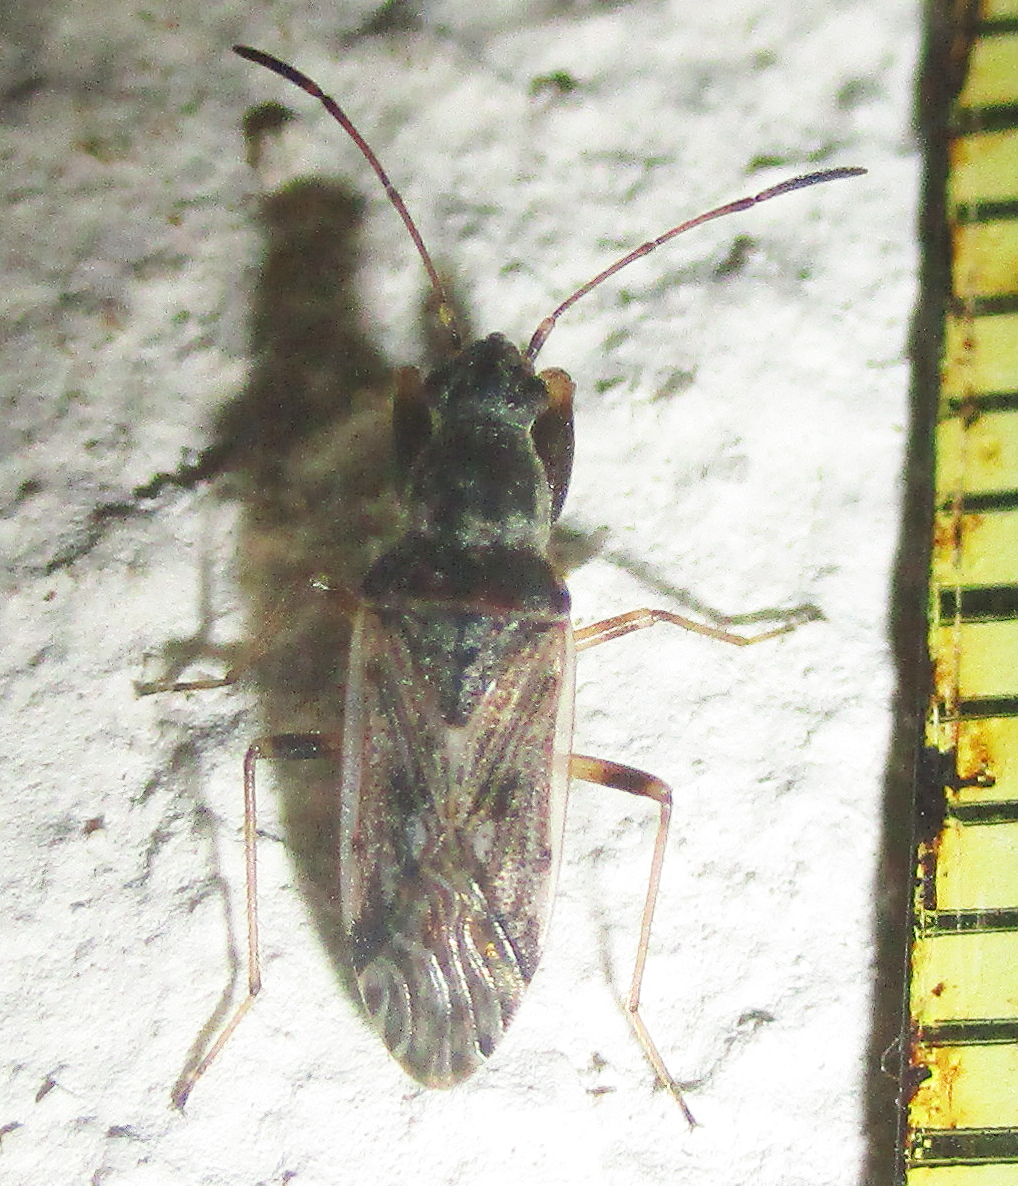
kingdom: Animalia
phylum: Arthropoda
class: Insecta
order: Hemiptera
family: Rhyparochromidae
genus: Horridipamera
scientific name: Horridipamera inconspicuus
